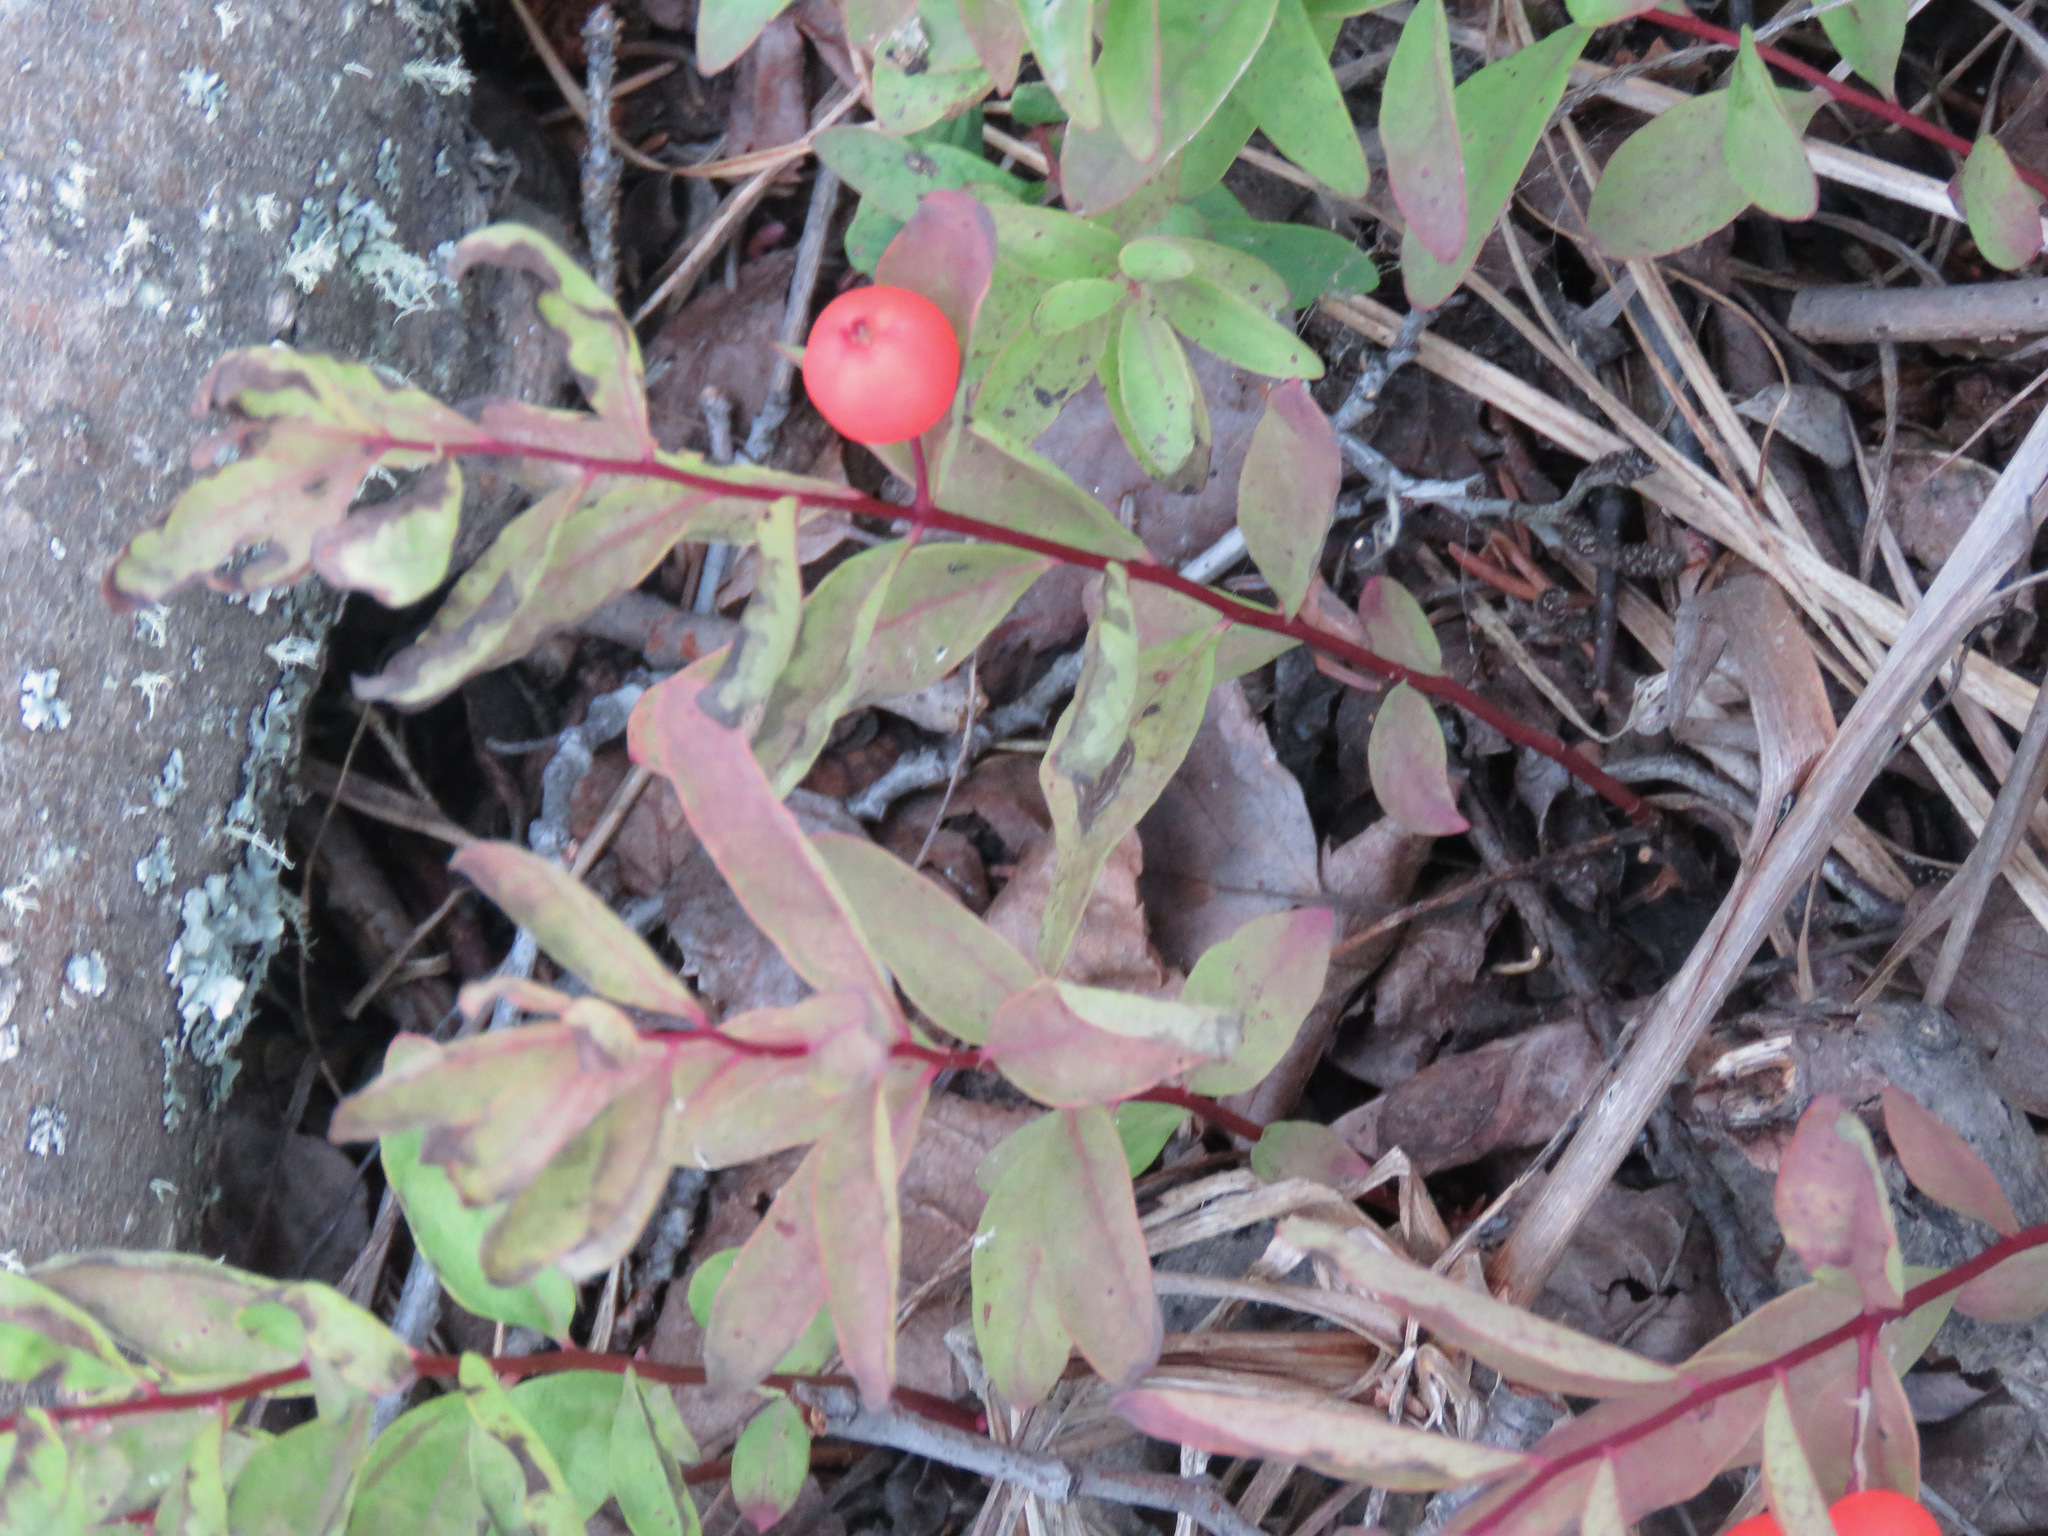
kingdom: Plantae
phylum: Tracheophyta
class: Magnoliopsida
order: Santalales
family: Comandraceae
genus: Geocaulon
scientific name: Geocaulon lividum
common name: Earthberry
